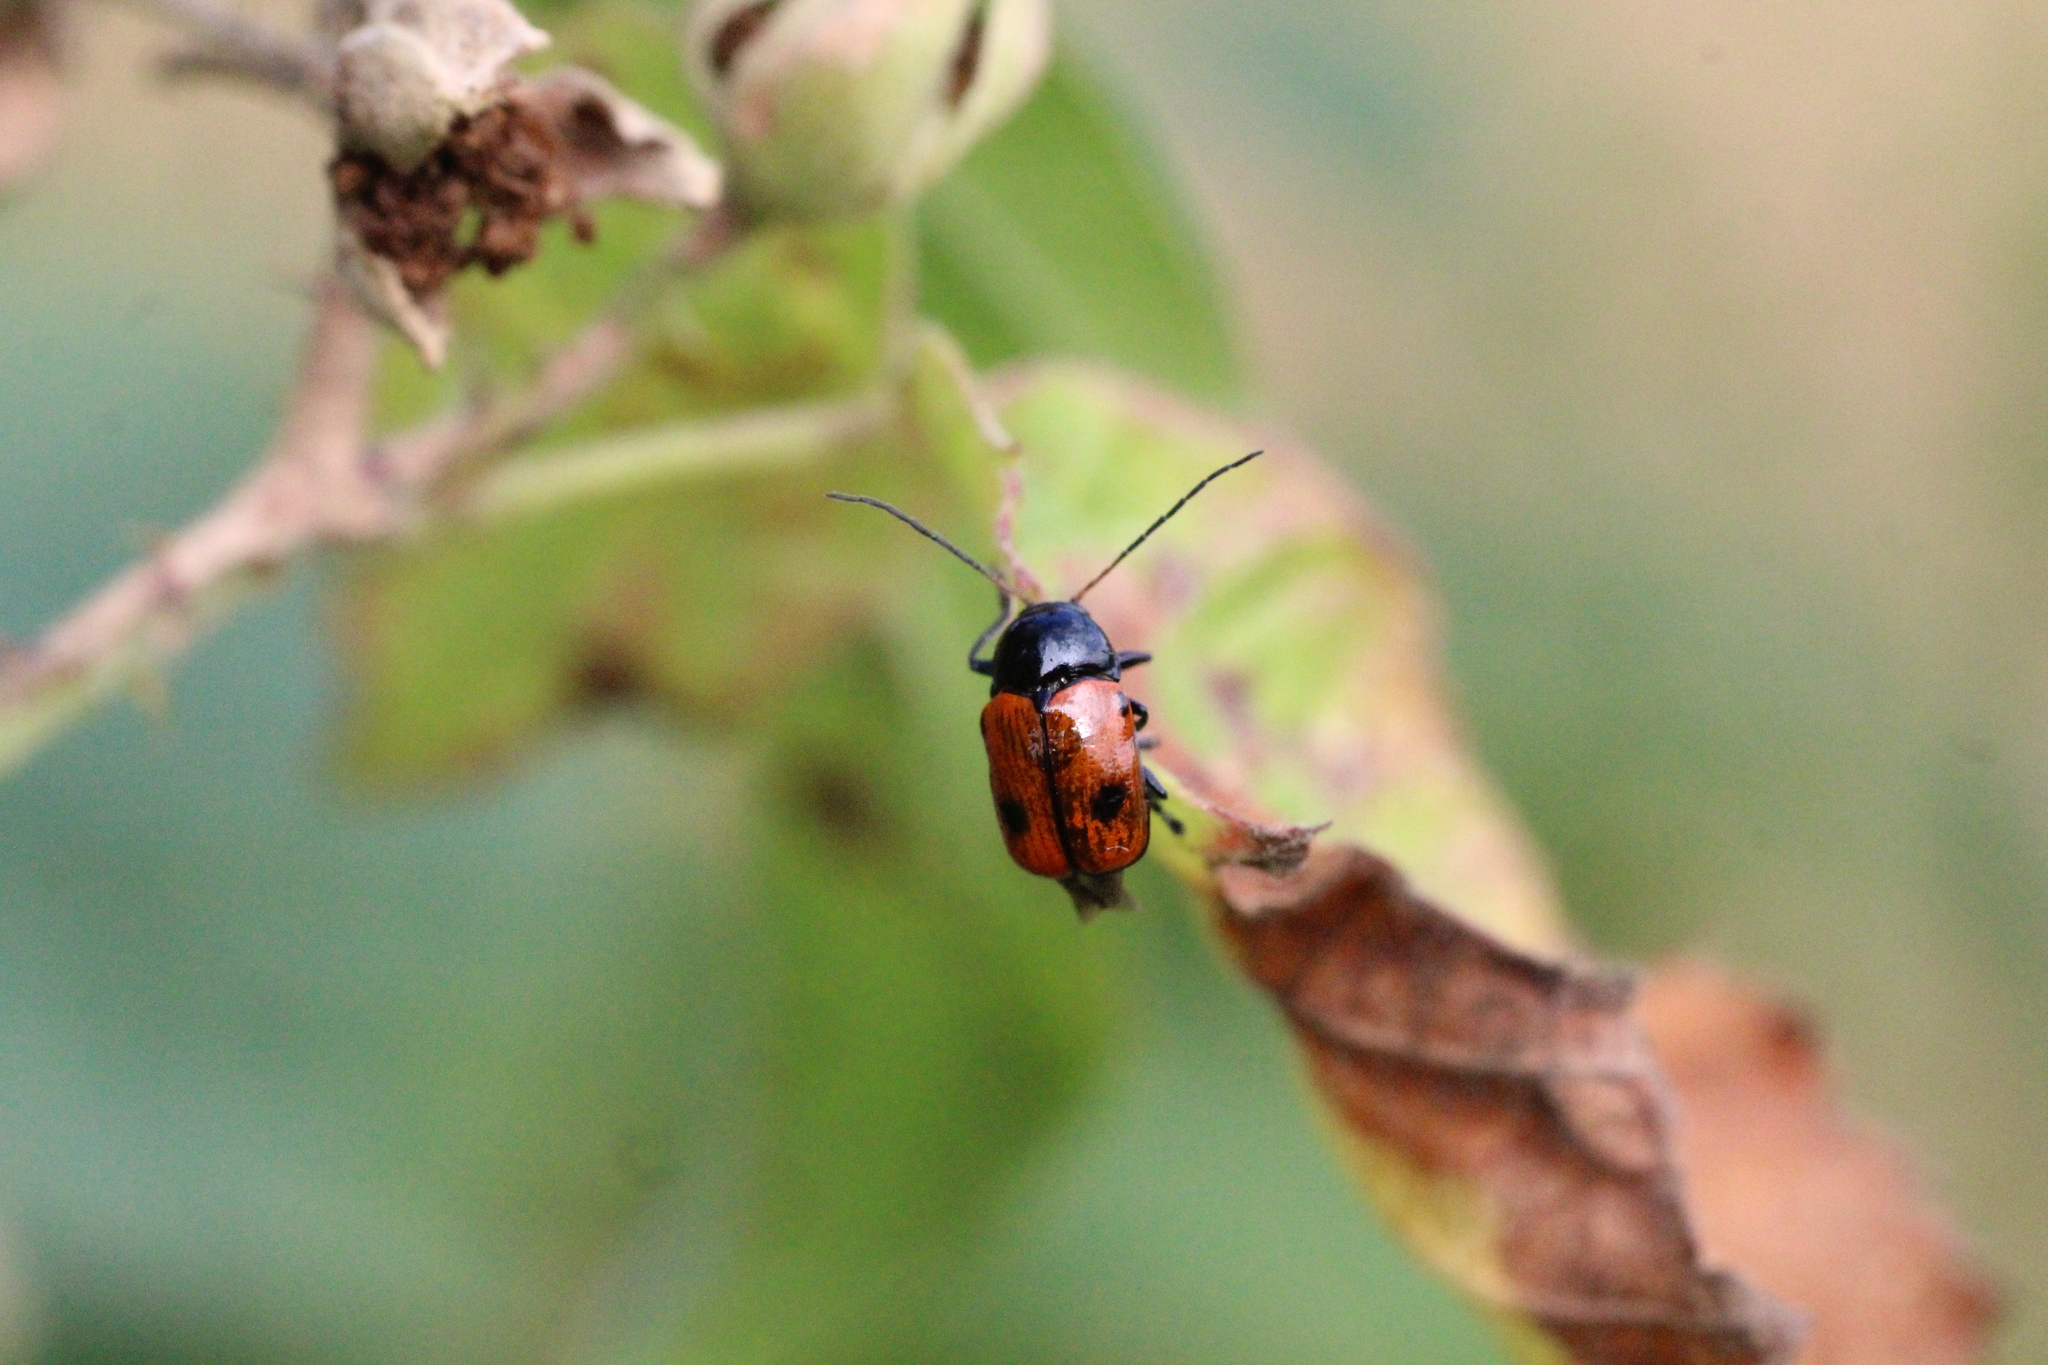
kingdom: Animalia
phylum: Arthropoda
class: Insecta
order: Coleoptera
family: Chrysomelidae
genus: Chiridopsis
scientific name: Chiridopsis bipunctata
